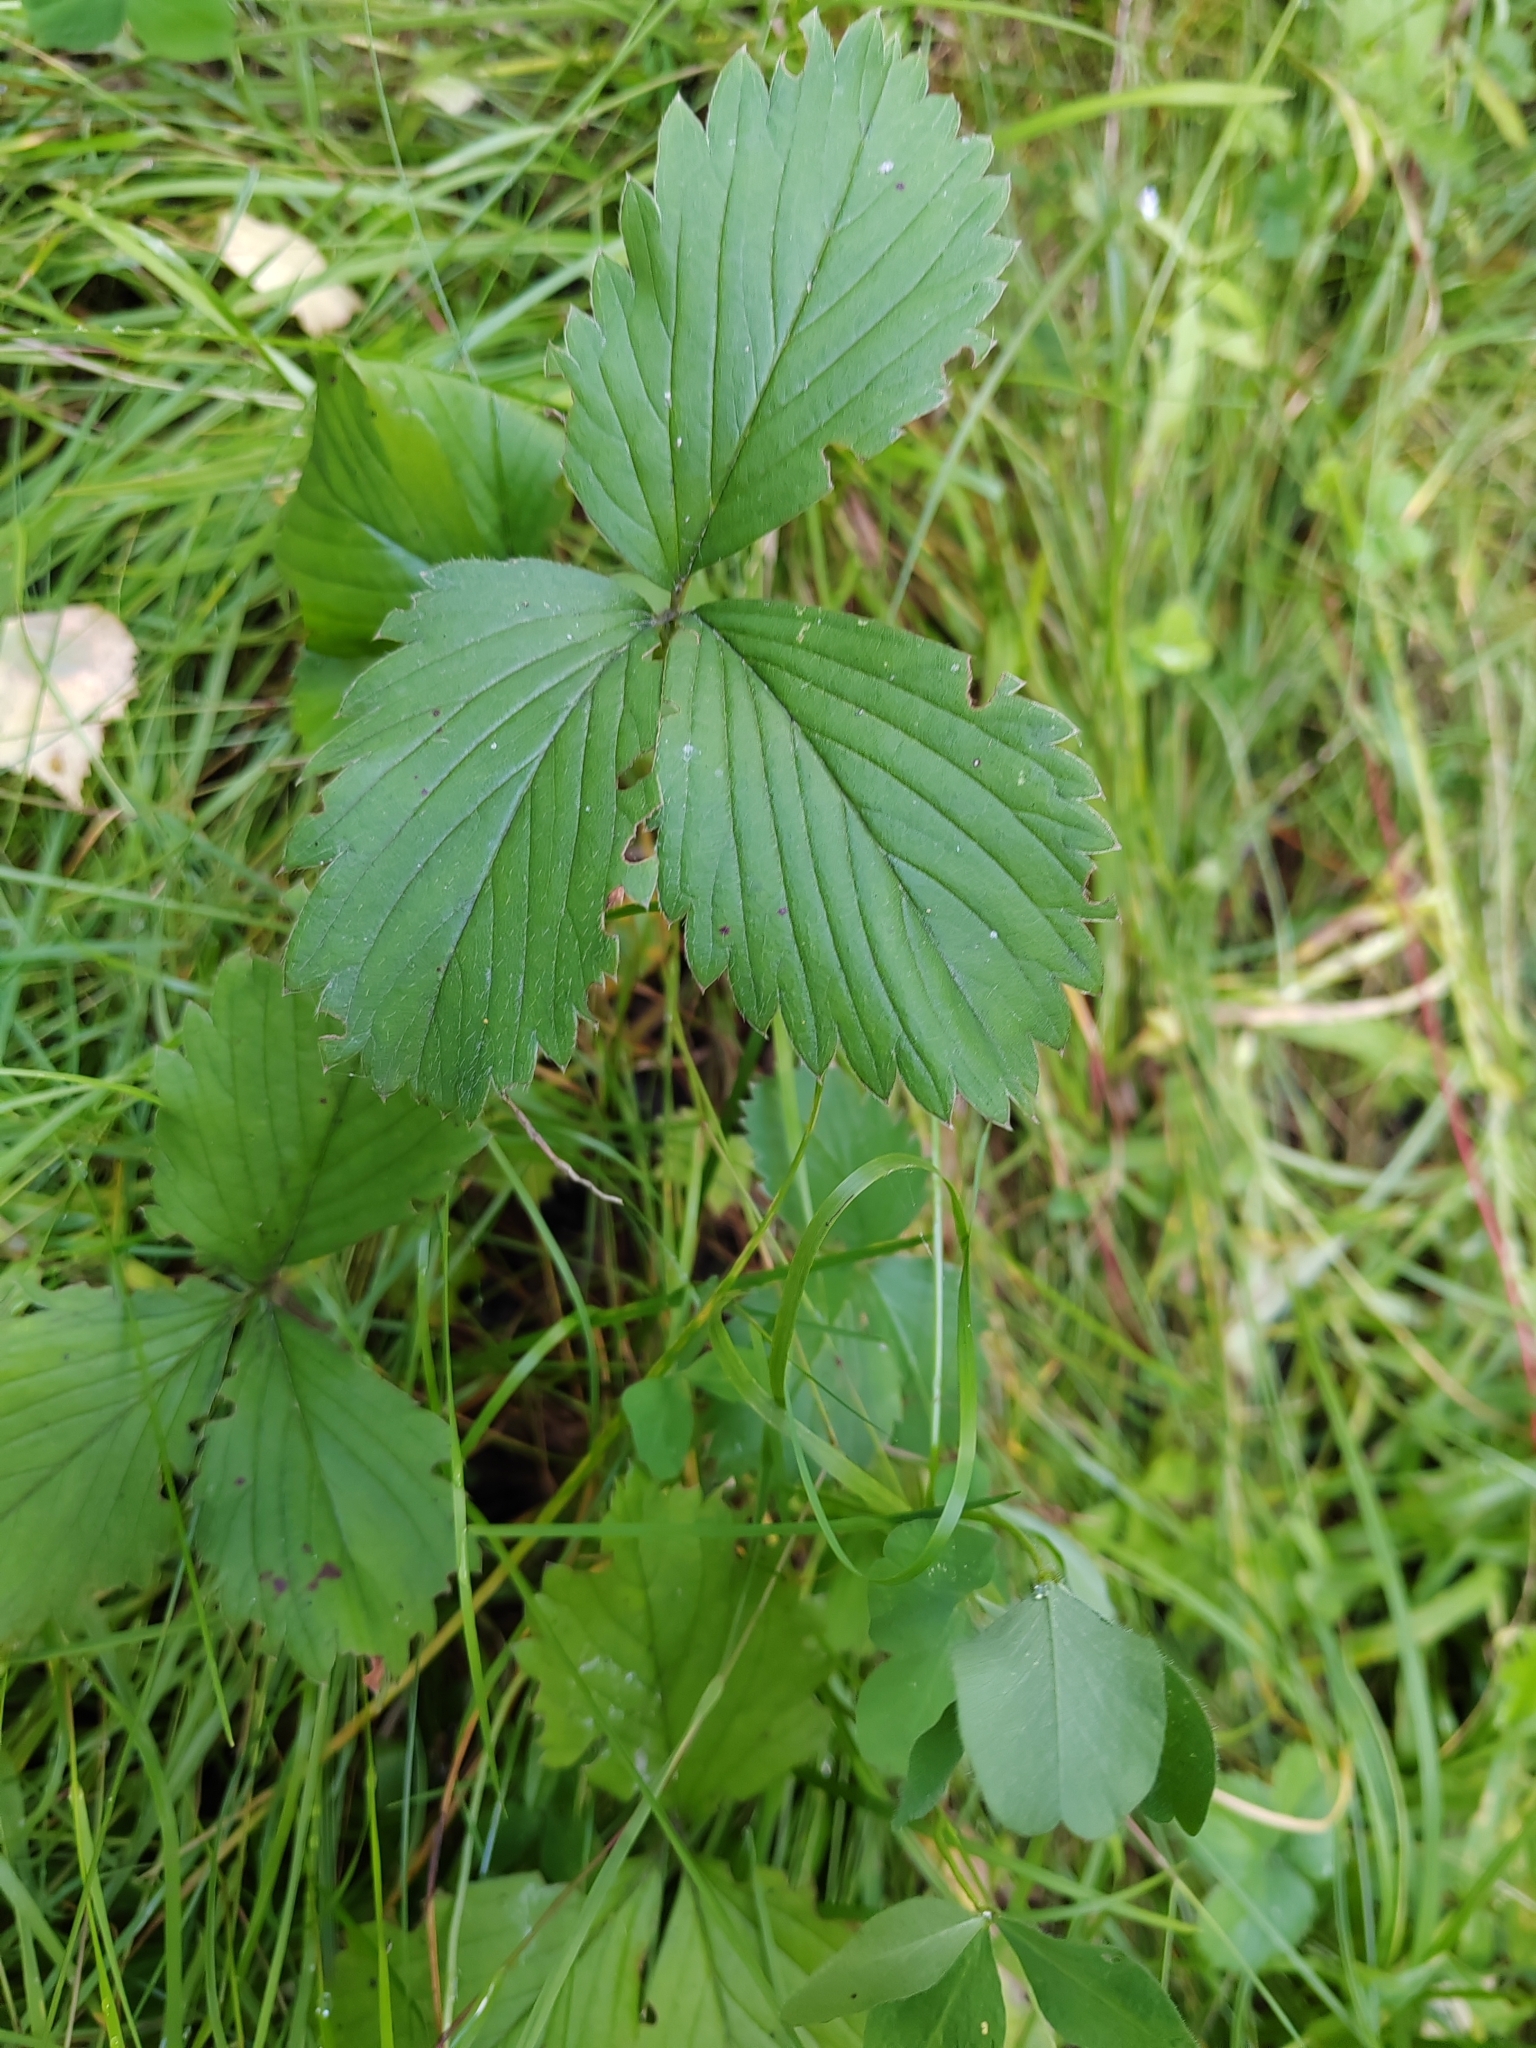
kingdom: Plantae
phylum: Tracheophyta
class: Magnoliopsida
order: Rosales
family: Rosaceae
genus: Fragaria
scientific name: Fragaria ananassa
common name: Garden strawberry
